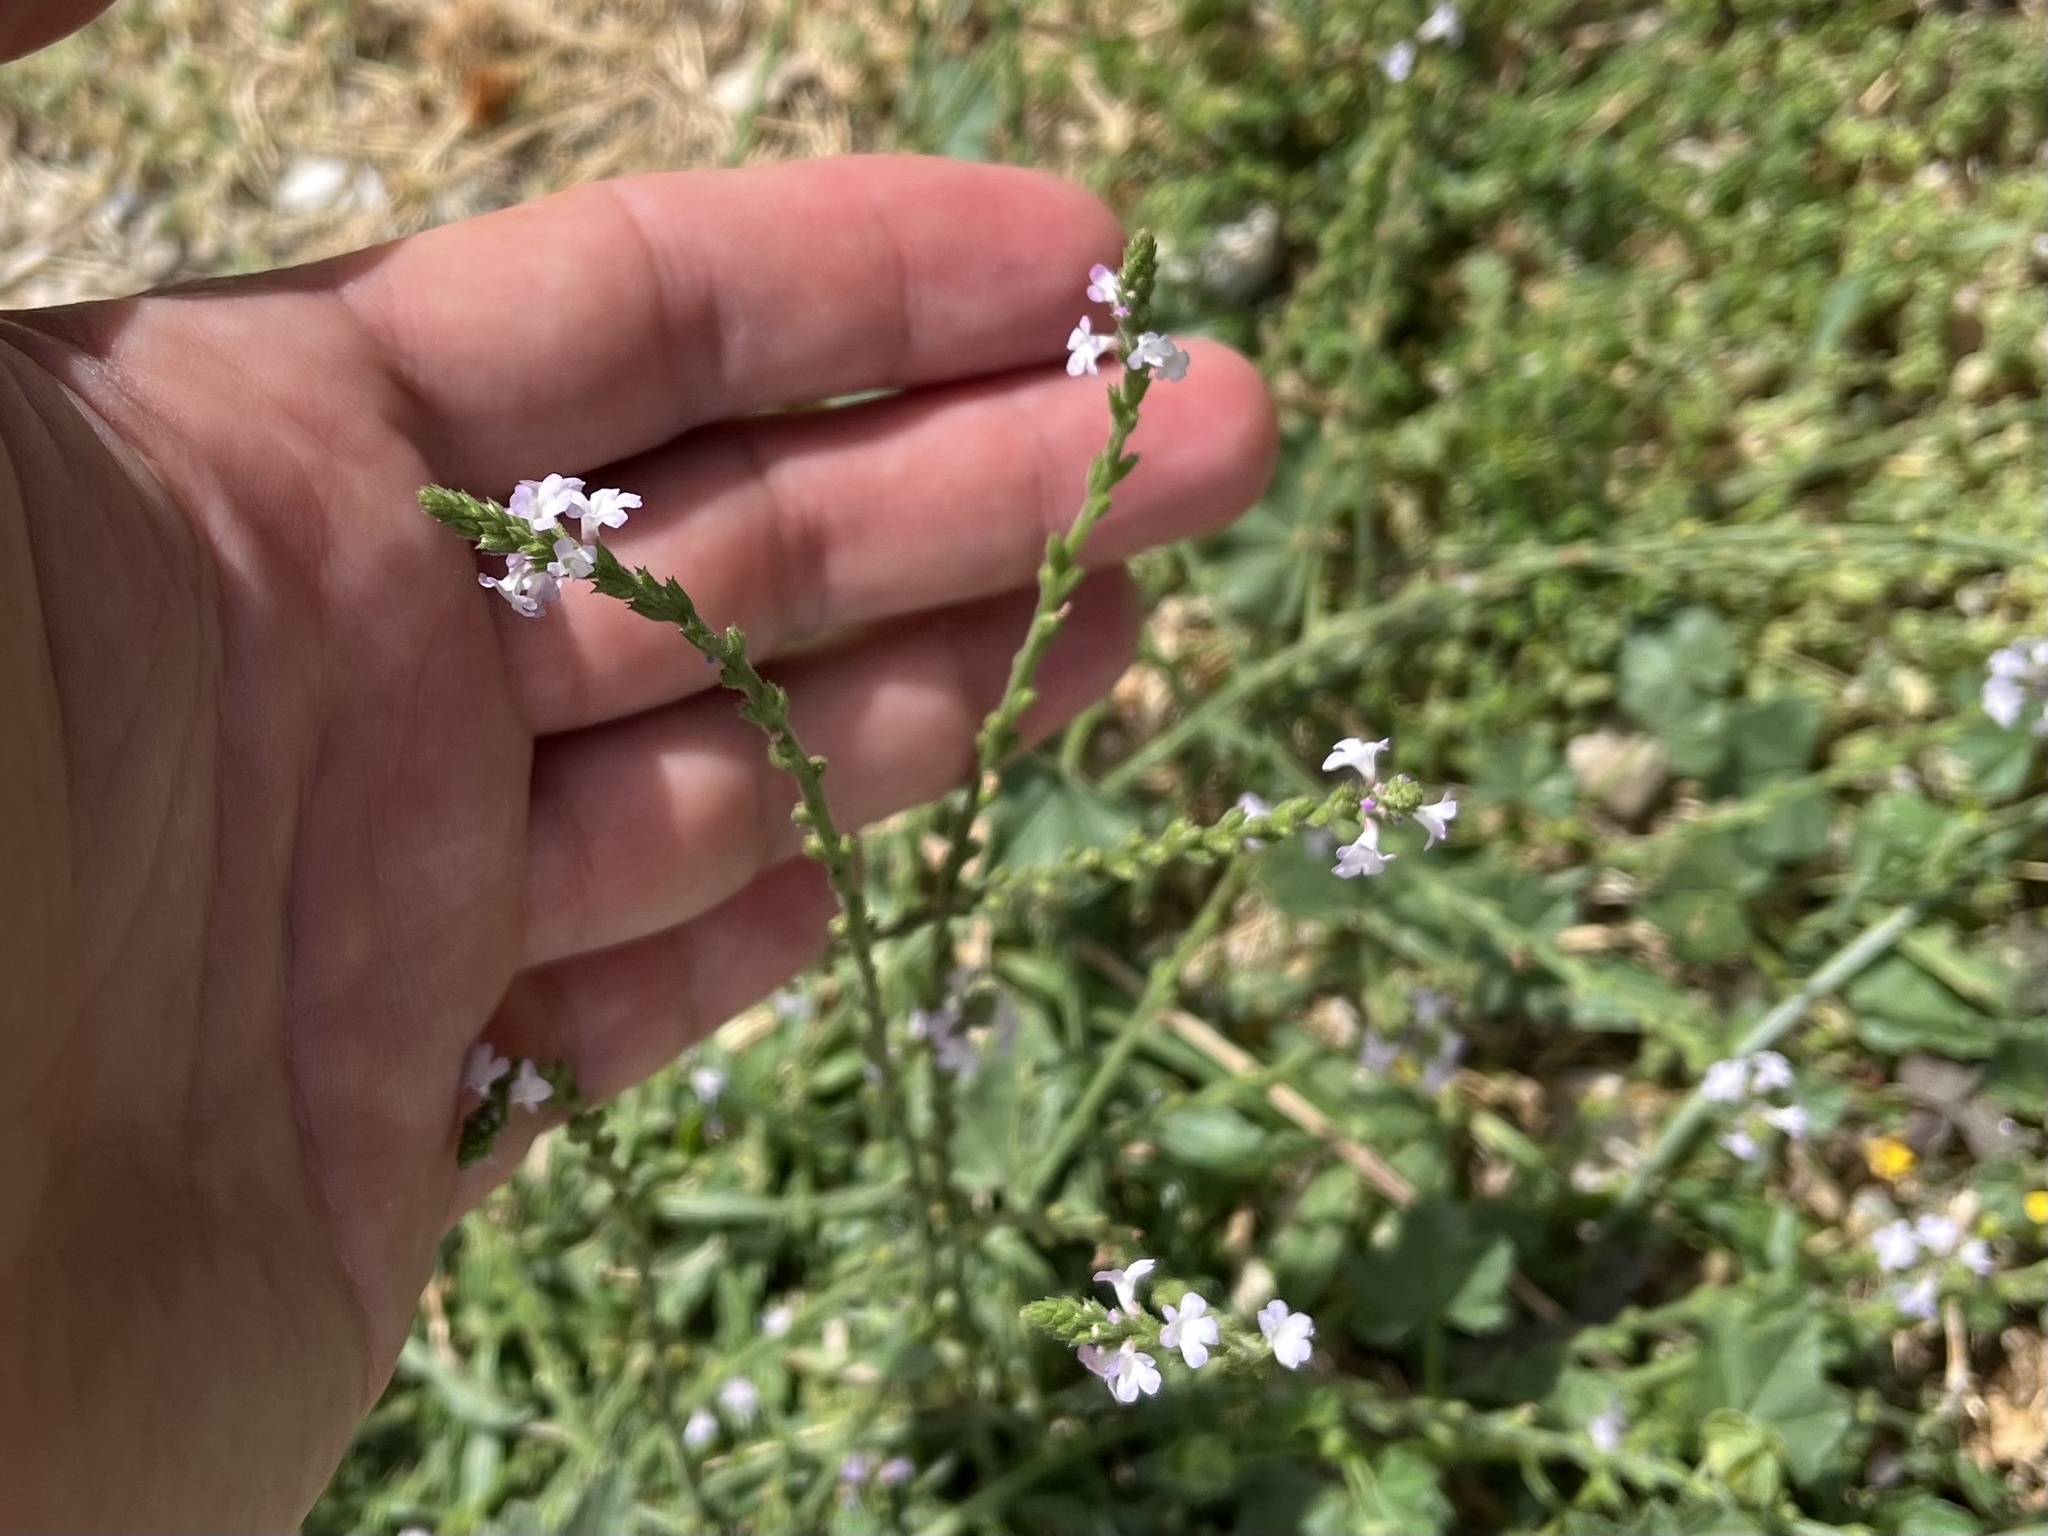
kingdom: Plantae
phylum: Tracheophyta
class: Magnoliopsida
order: Lamiales
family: Verbenaceae
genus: Verbena
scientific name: Verbena officinalis
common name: Vervain
